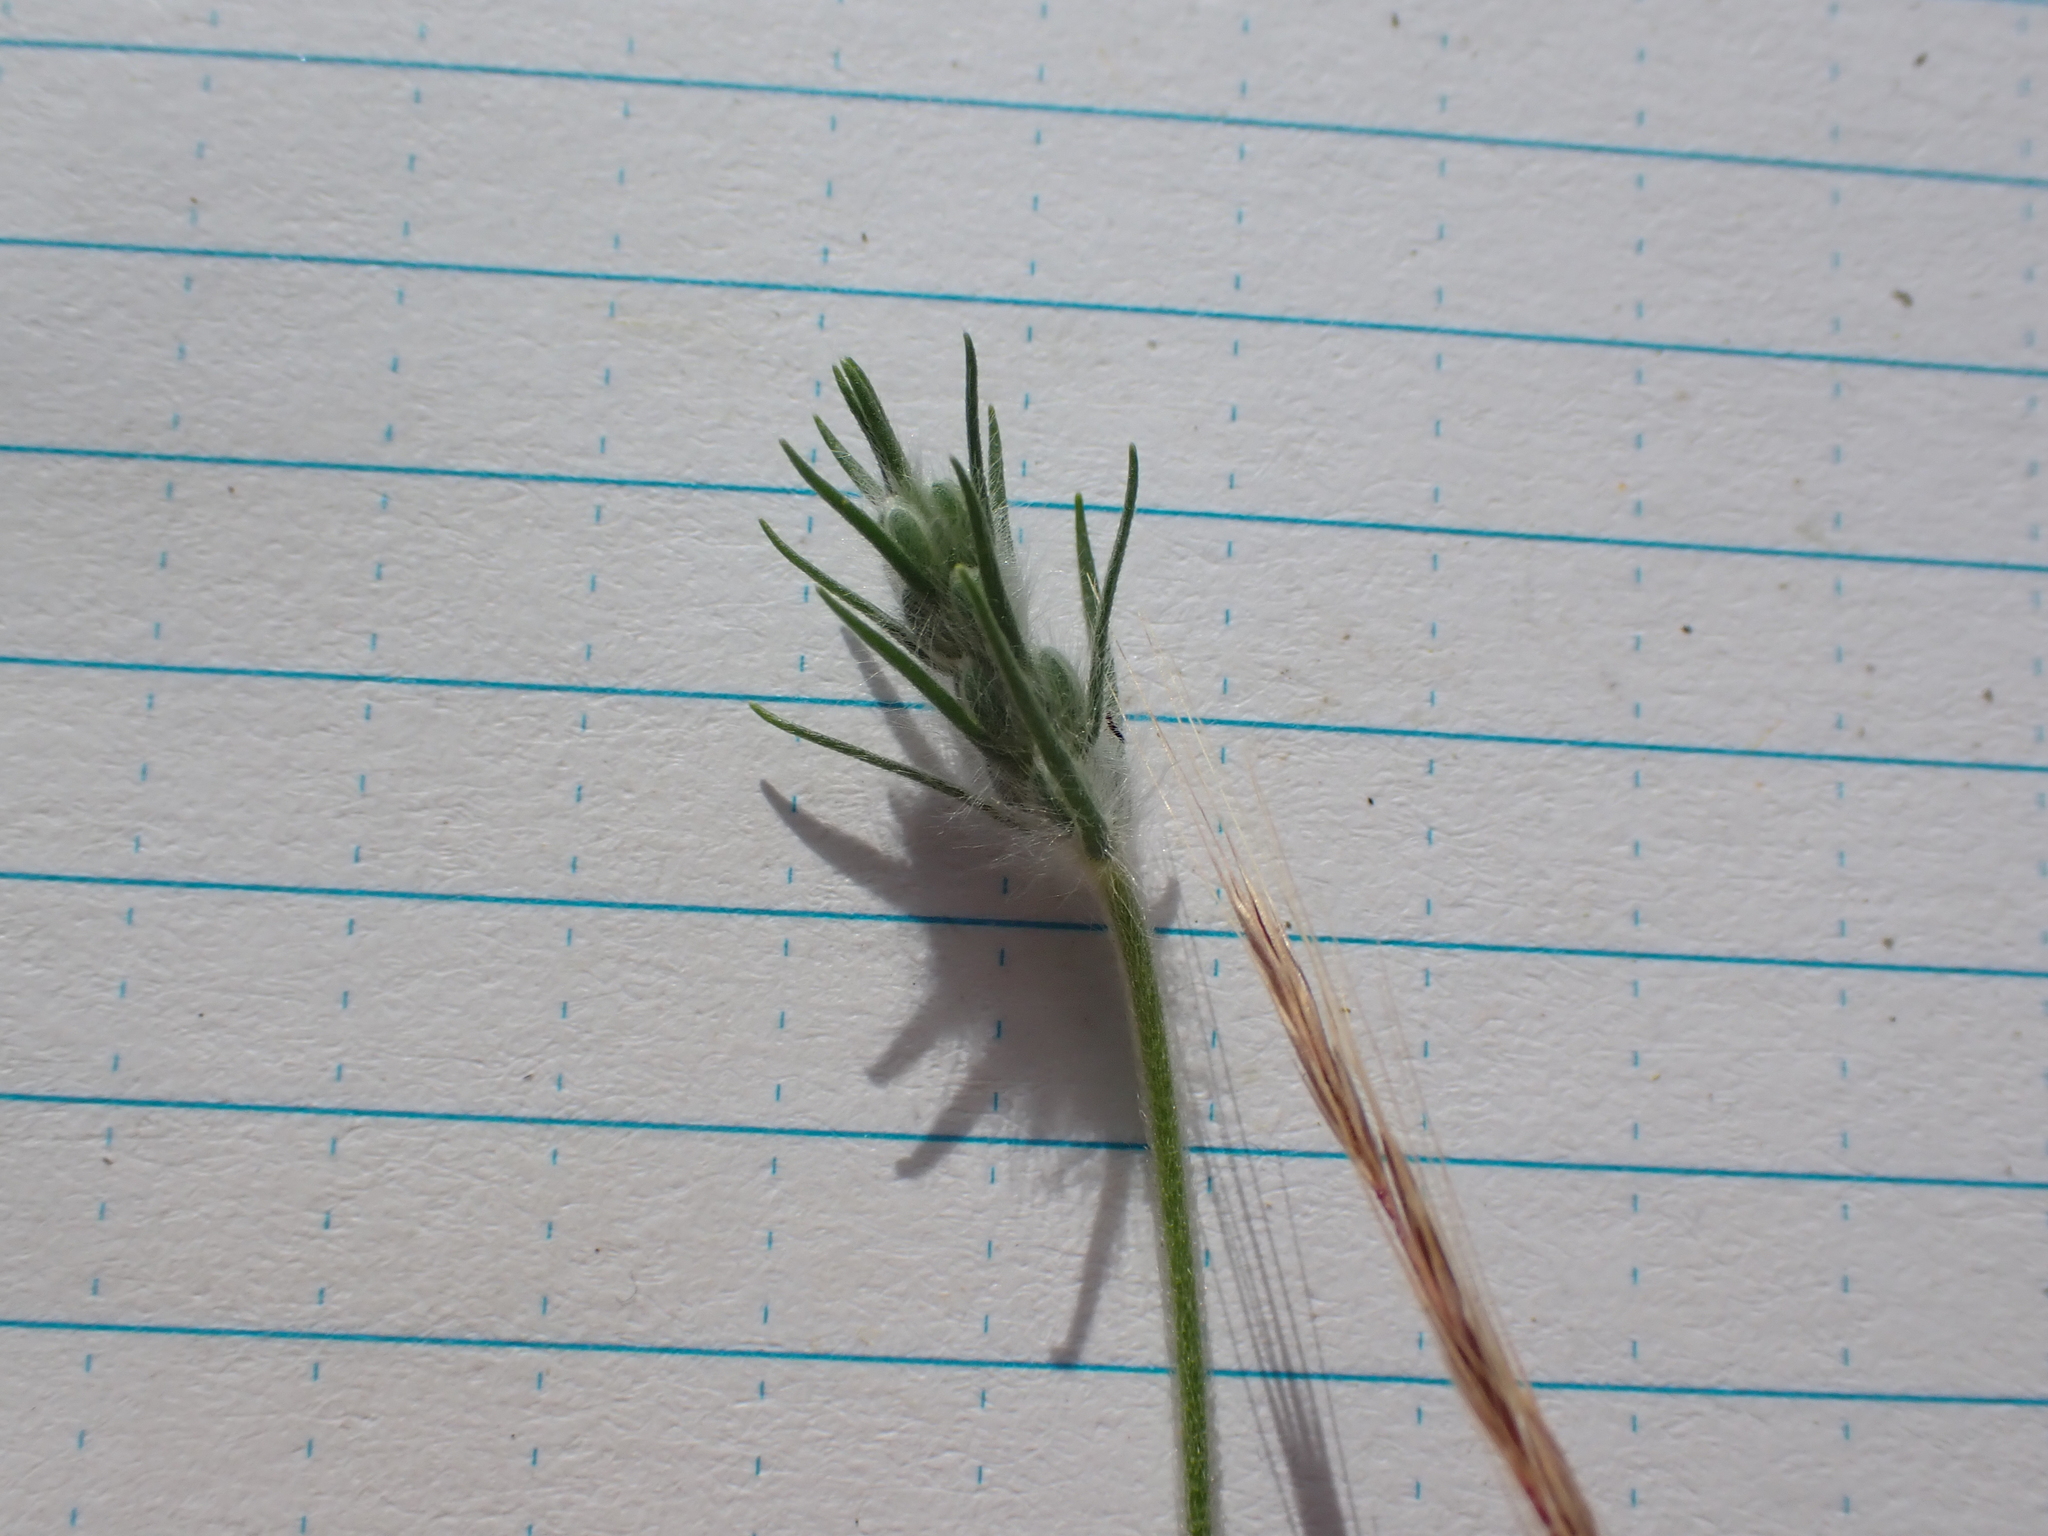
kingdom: Plantae
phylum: Tracheophyta
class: Magnoliopsida
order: Lamiales
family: Plantaginaceae
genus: Plantago
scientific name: Plantago aristata
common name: Bracted plantain
